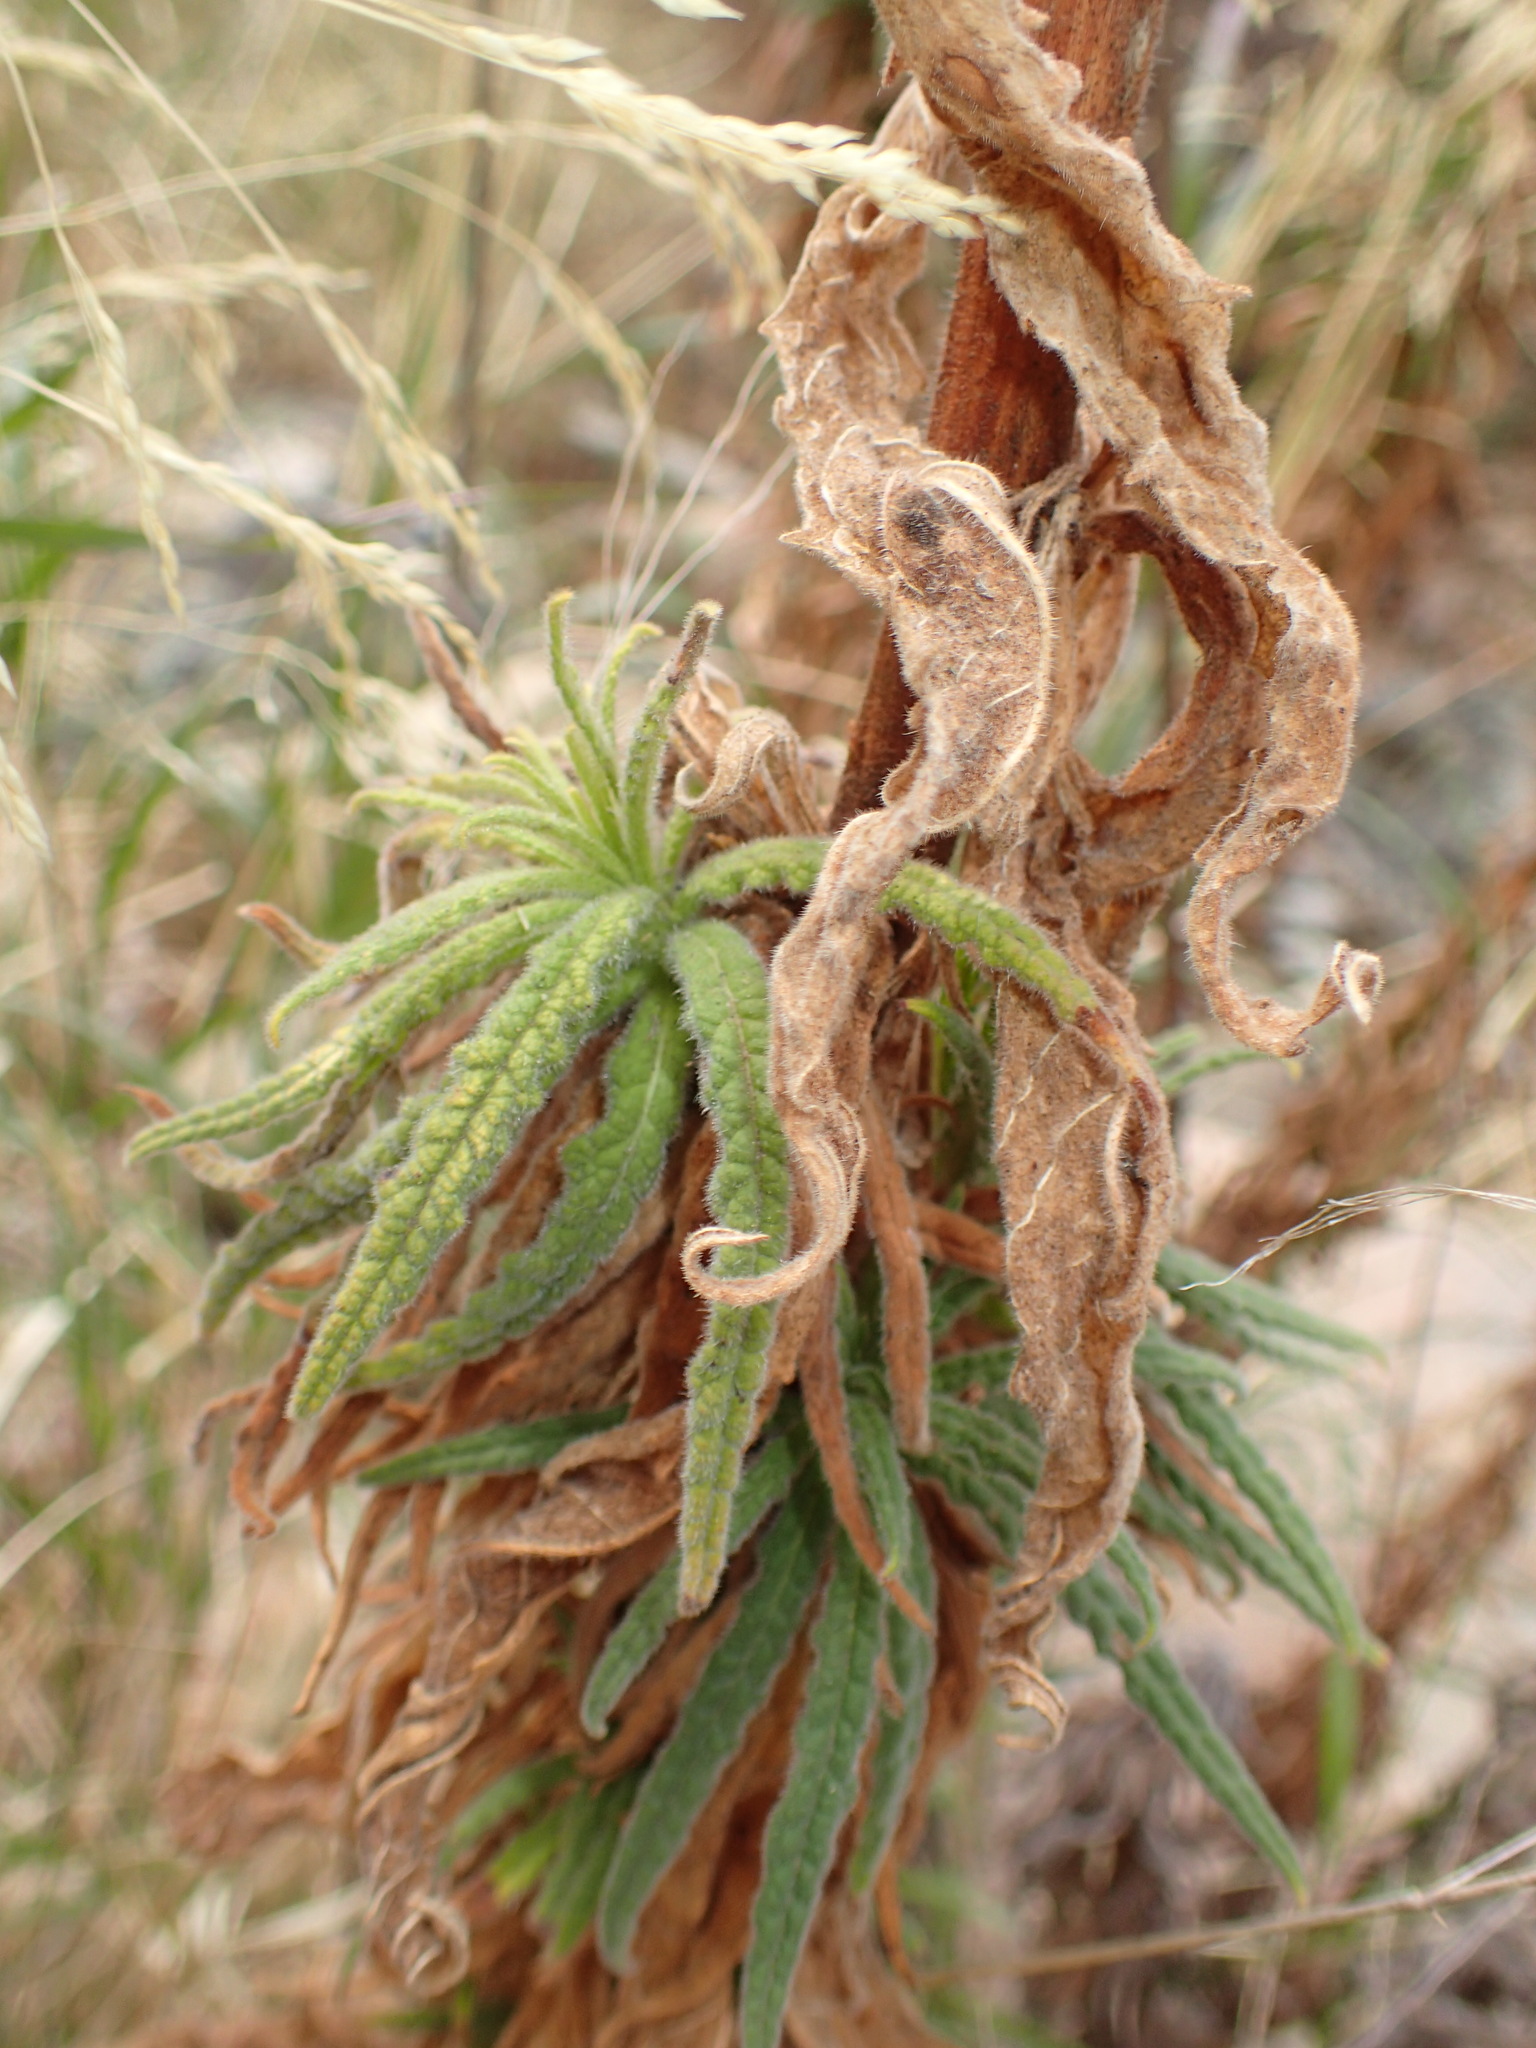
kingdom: Plantae
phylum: Tracheophyta
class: Magnoliopsida
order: Boraginales
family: Namaceae
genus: Turricula
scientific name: Turricula parryi
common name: Poodle-dog-bush
